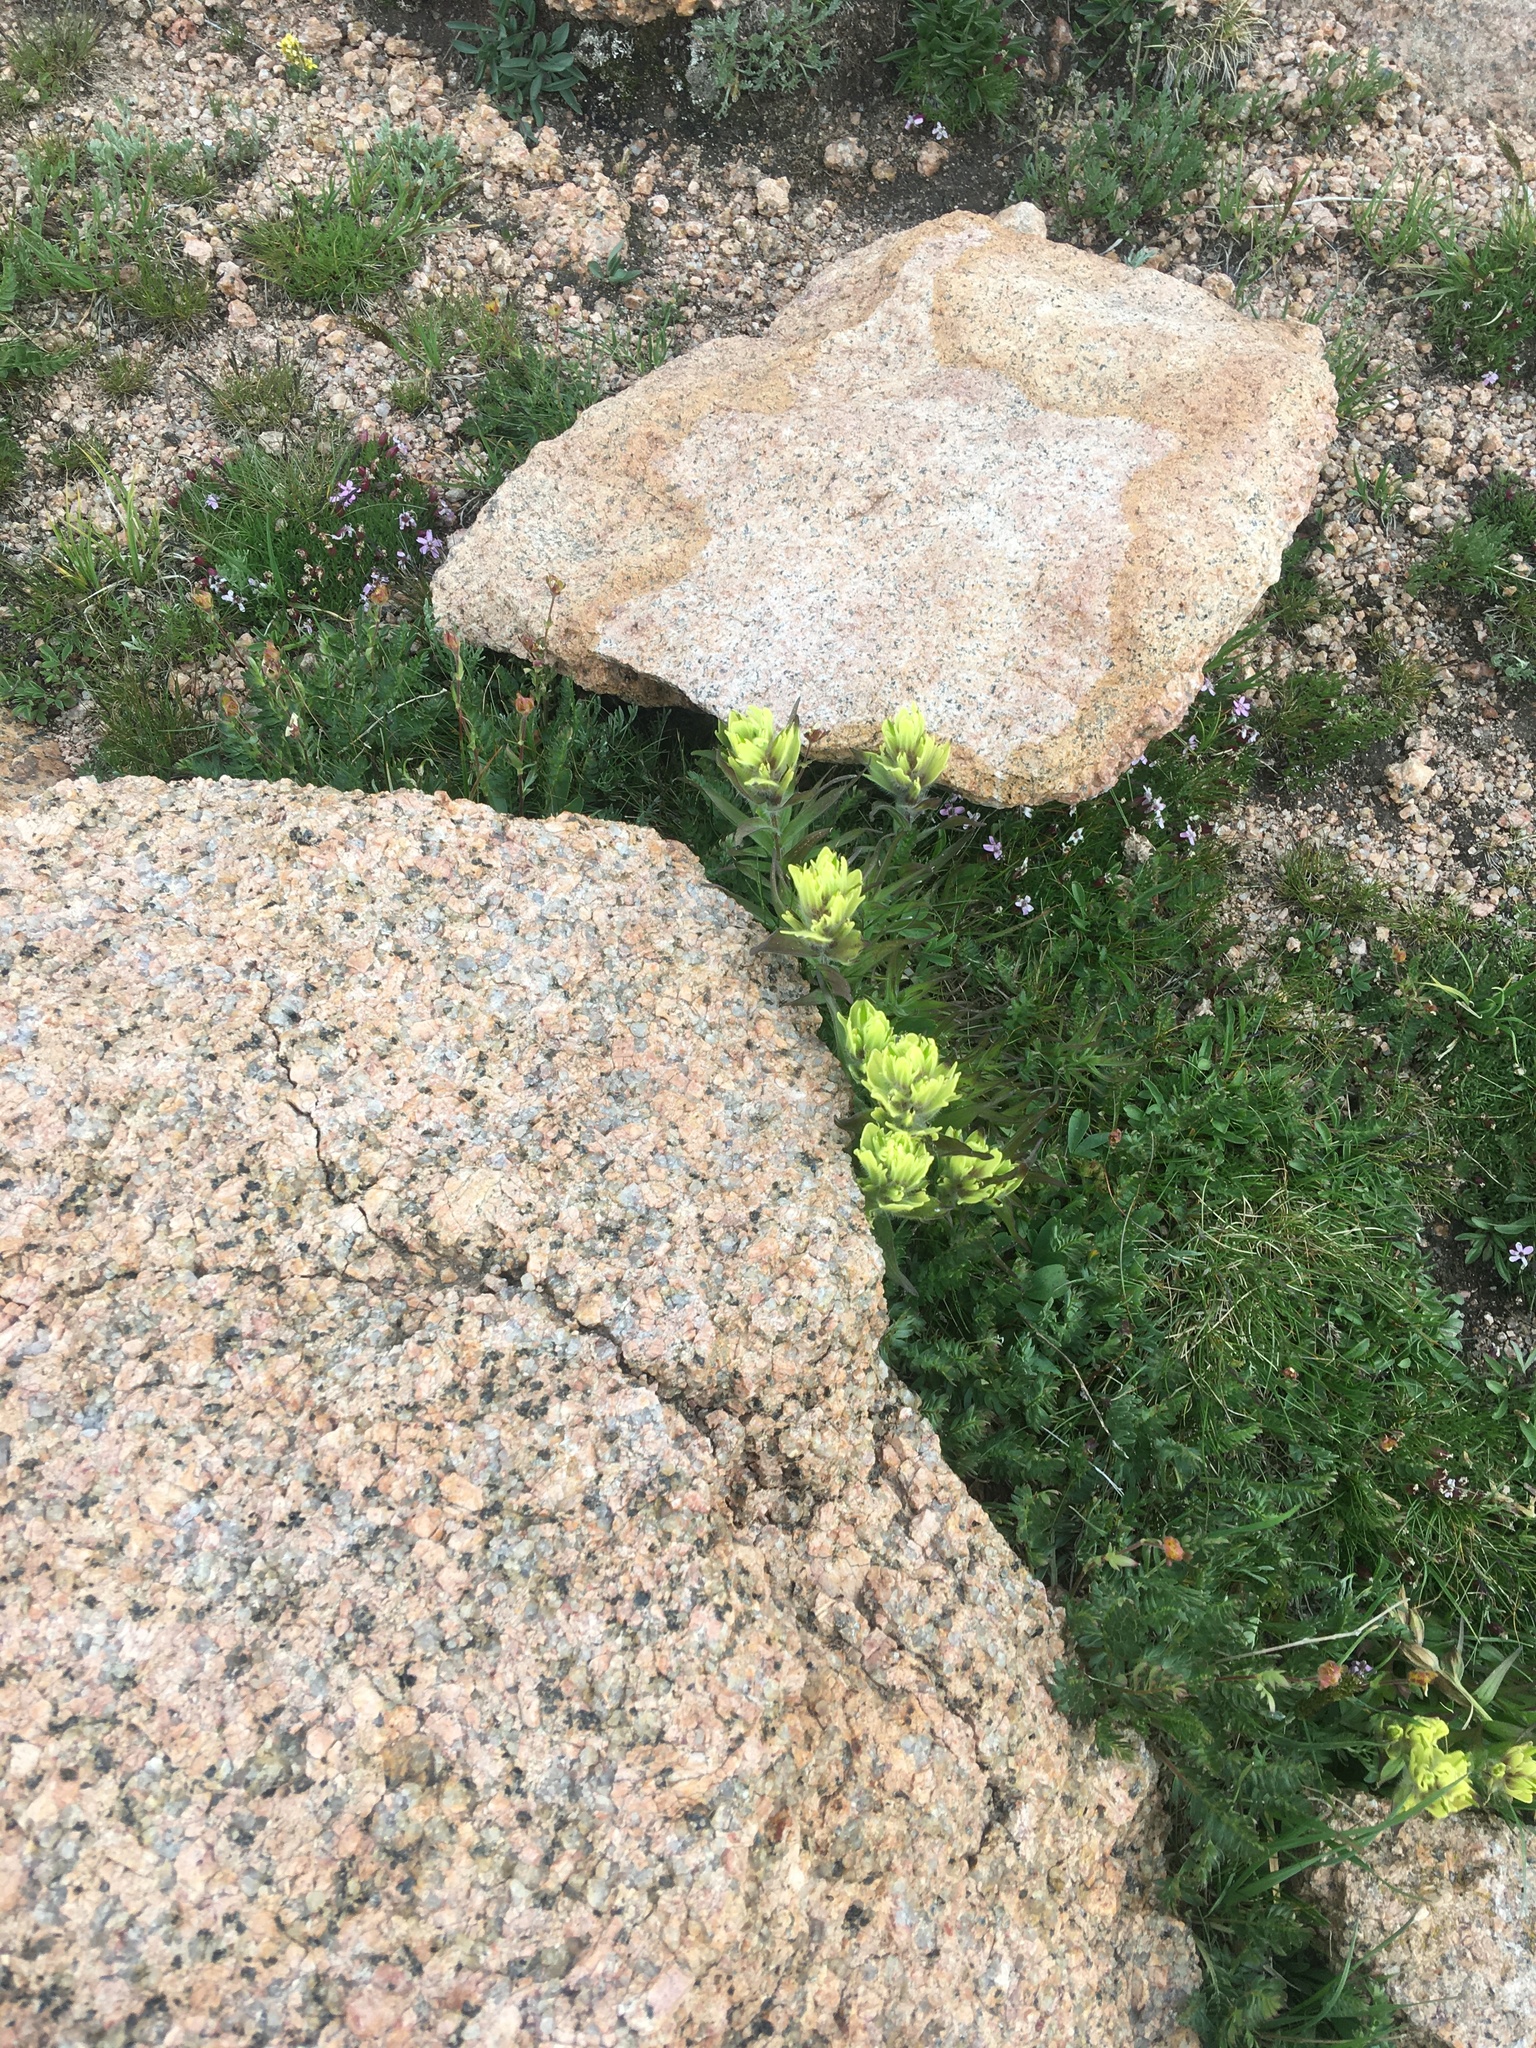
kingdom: Plantae
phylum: Tracheophyta
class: Magnoliopsida
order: Lamiales
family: Orobanchaceae
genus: Castilleja
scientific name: Castilleja occidentalis
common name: Western paintbrush
